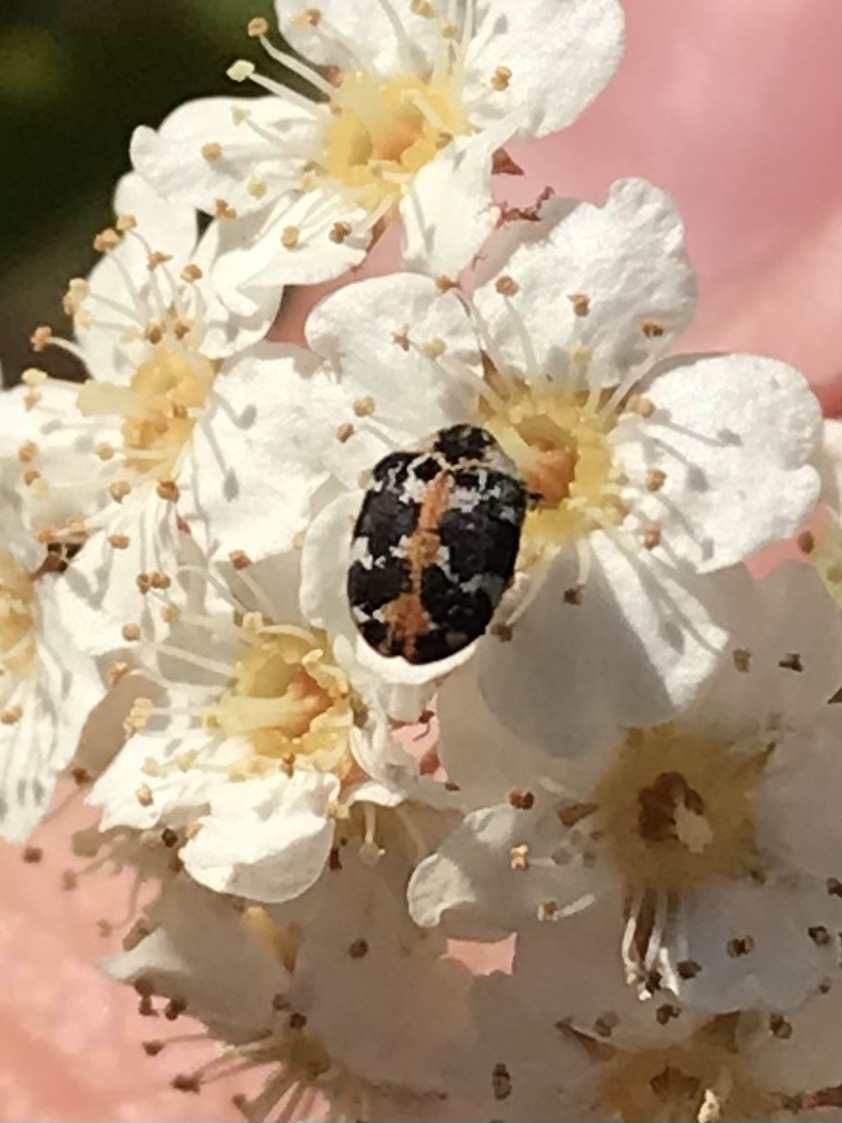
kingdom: Animalia
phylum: Arthropoda
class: Insecta
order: Coleoptera
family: Dermestidae
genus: Anthrenus
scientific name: Anthrenus scrophulariae
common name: Buffalo carpet beetle
